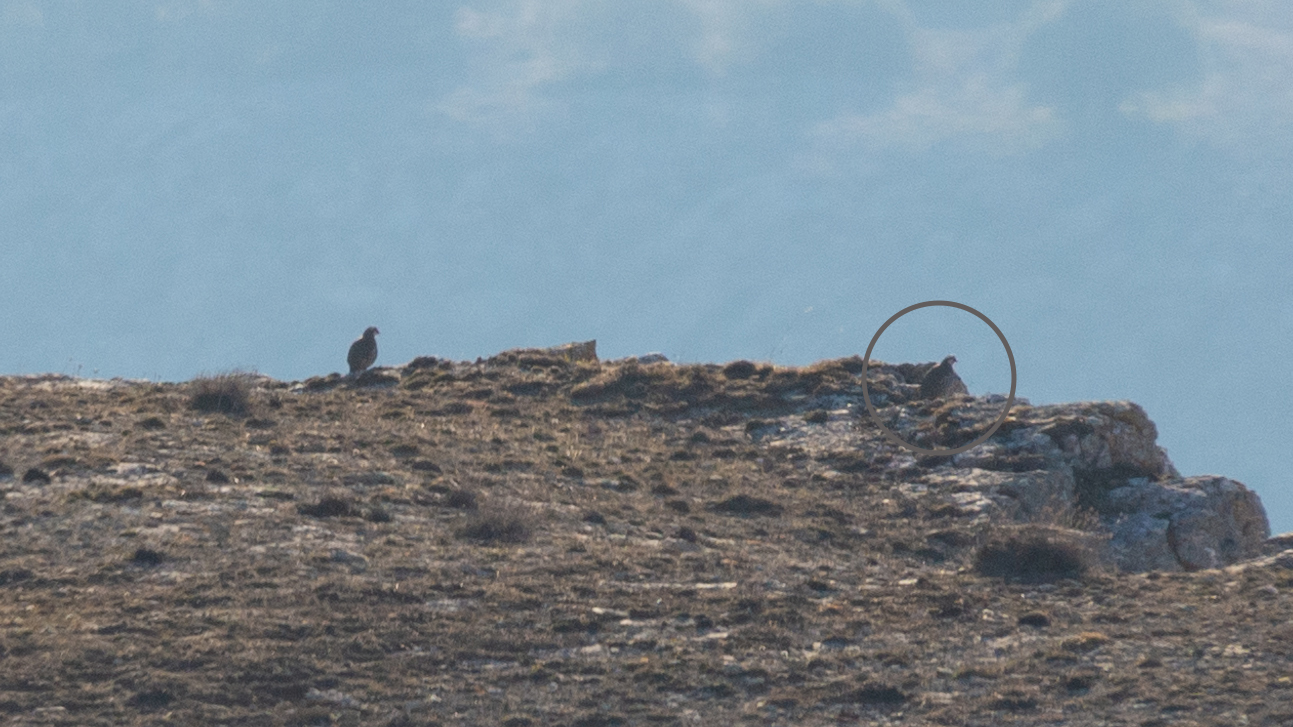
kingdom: Animalia
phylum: Chordata
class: Aves
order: Galliformes
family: Phasianidae
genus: Alectoris
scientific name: Alectoris rufa
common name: Red-legged partridge
